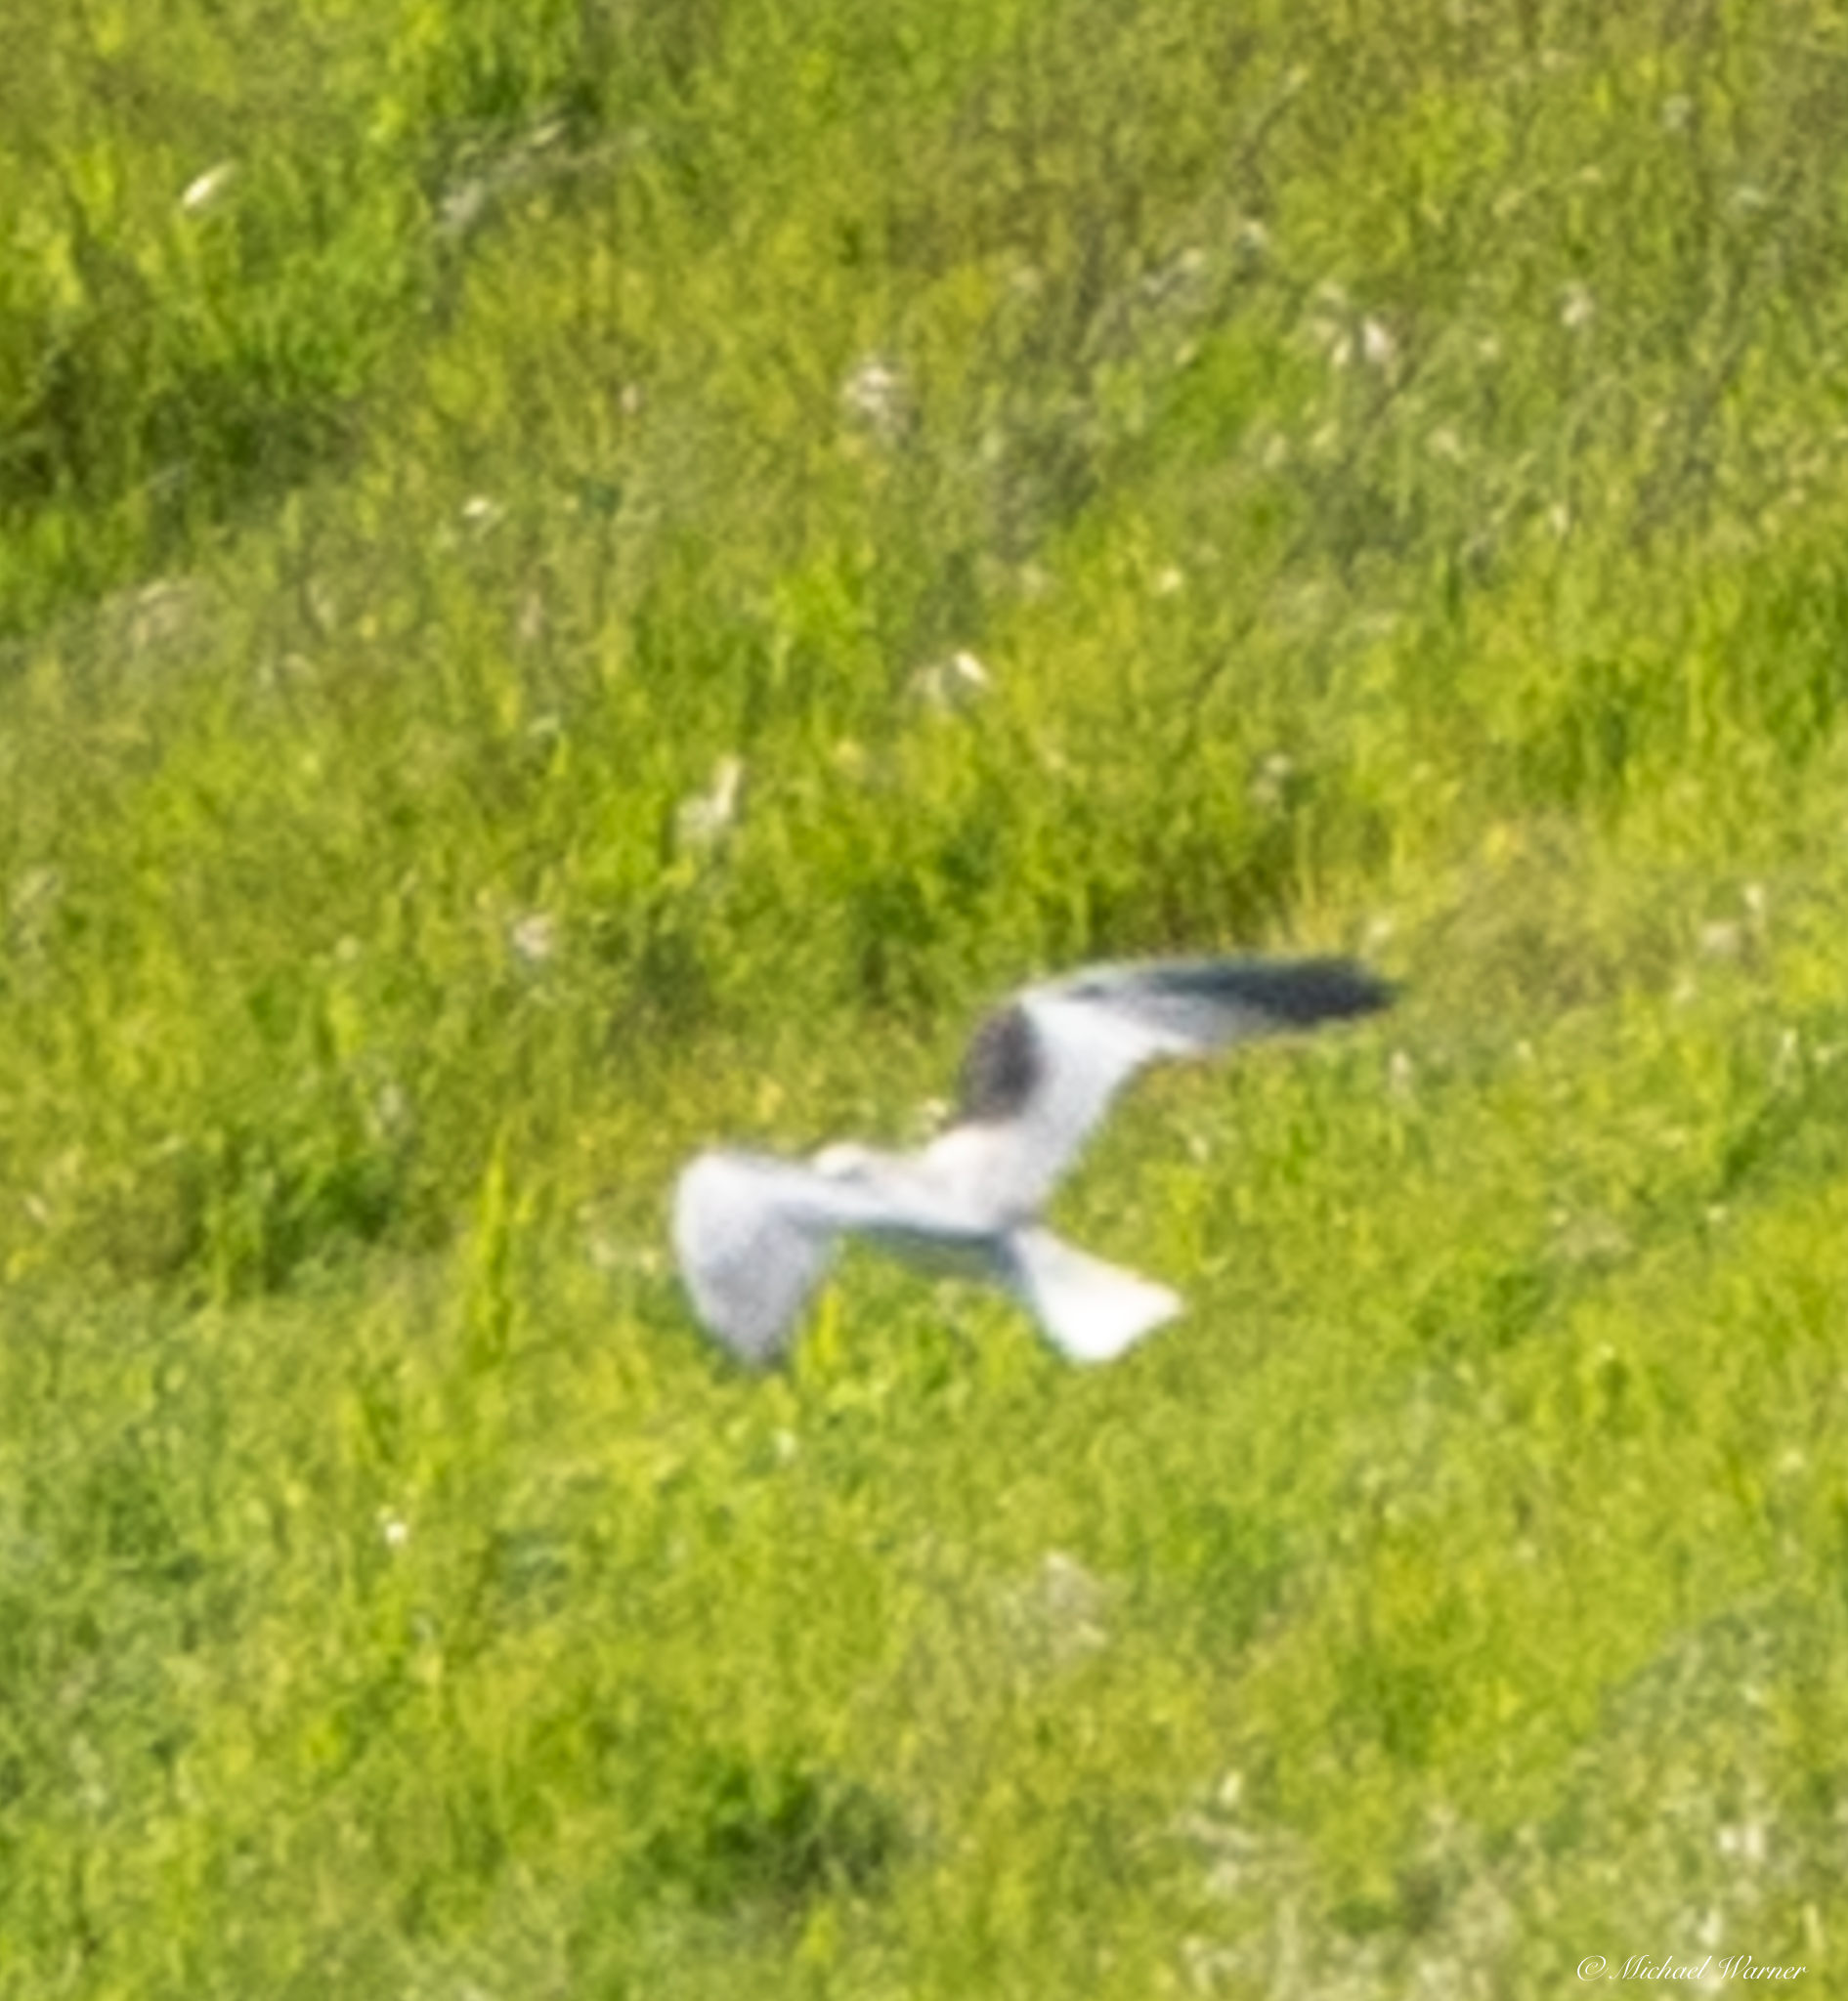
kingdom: Animalia
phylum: Chordata
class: Aves
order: Accipitriformes
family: Accipitridae
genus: Elanus
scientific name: Elanus leucurus
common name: White-tailed kite
